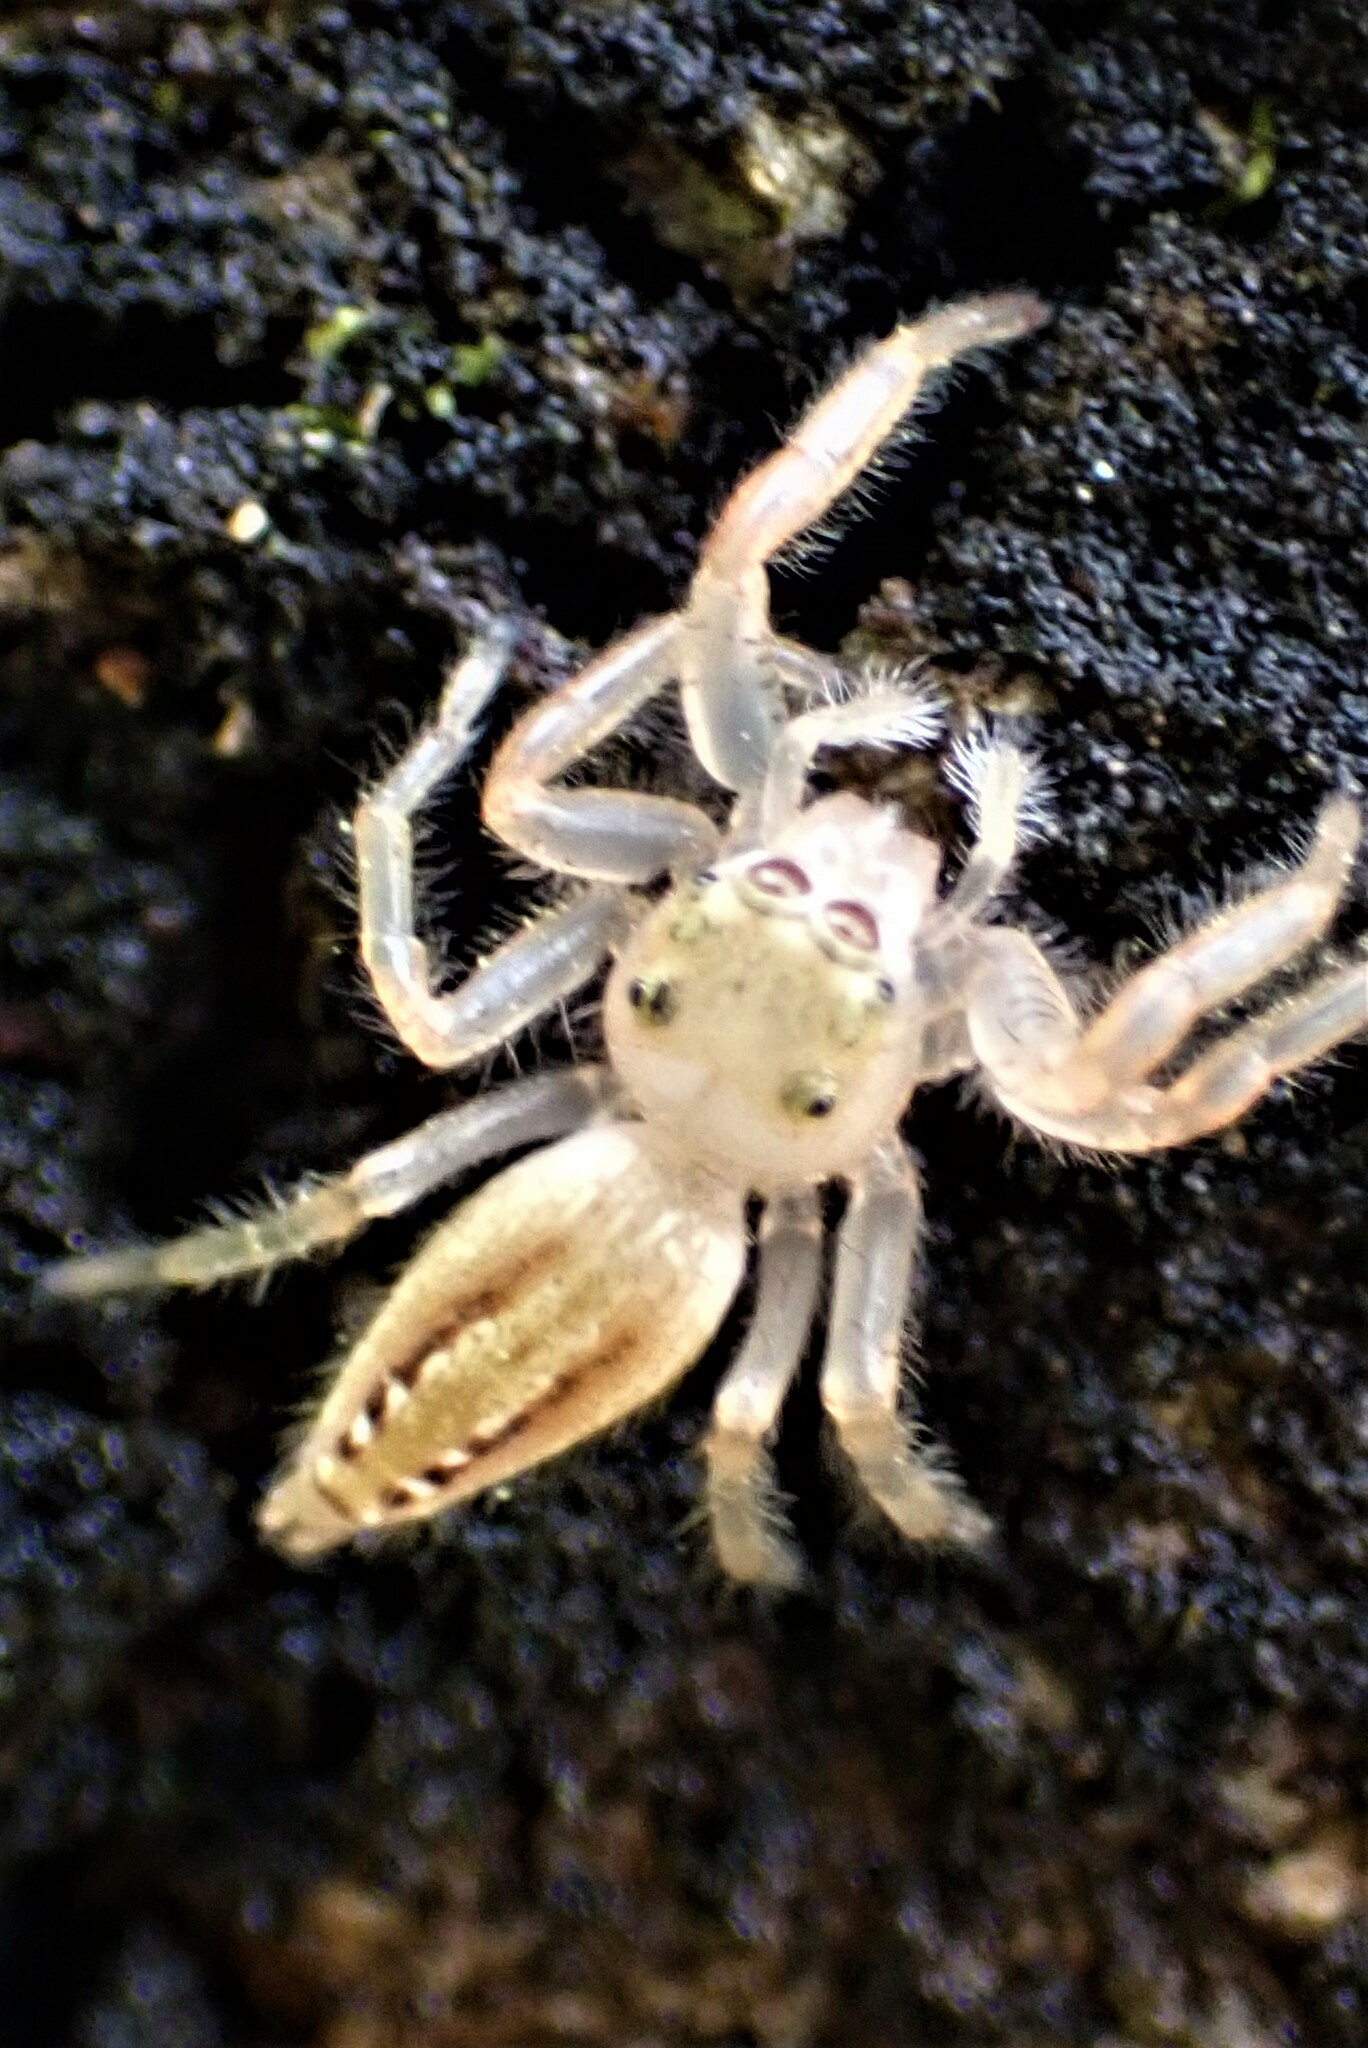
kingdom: Animalia
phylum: Arthropoda
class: Arachnida
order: Araneae
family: Salticidae
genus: Thyene
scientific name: Thyene ogdeni
